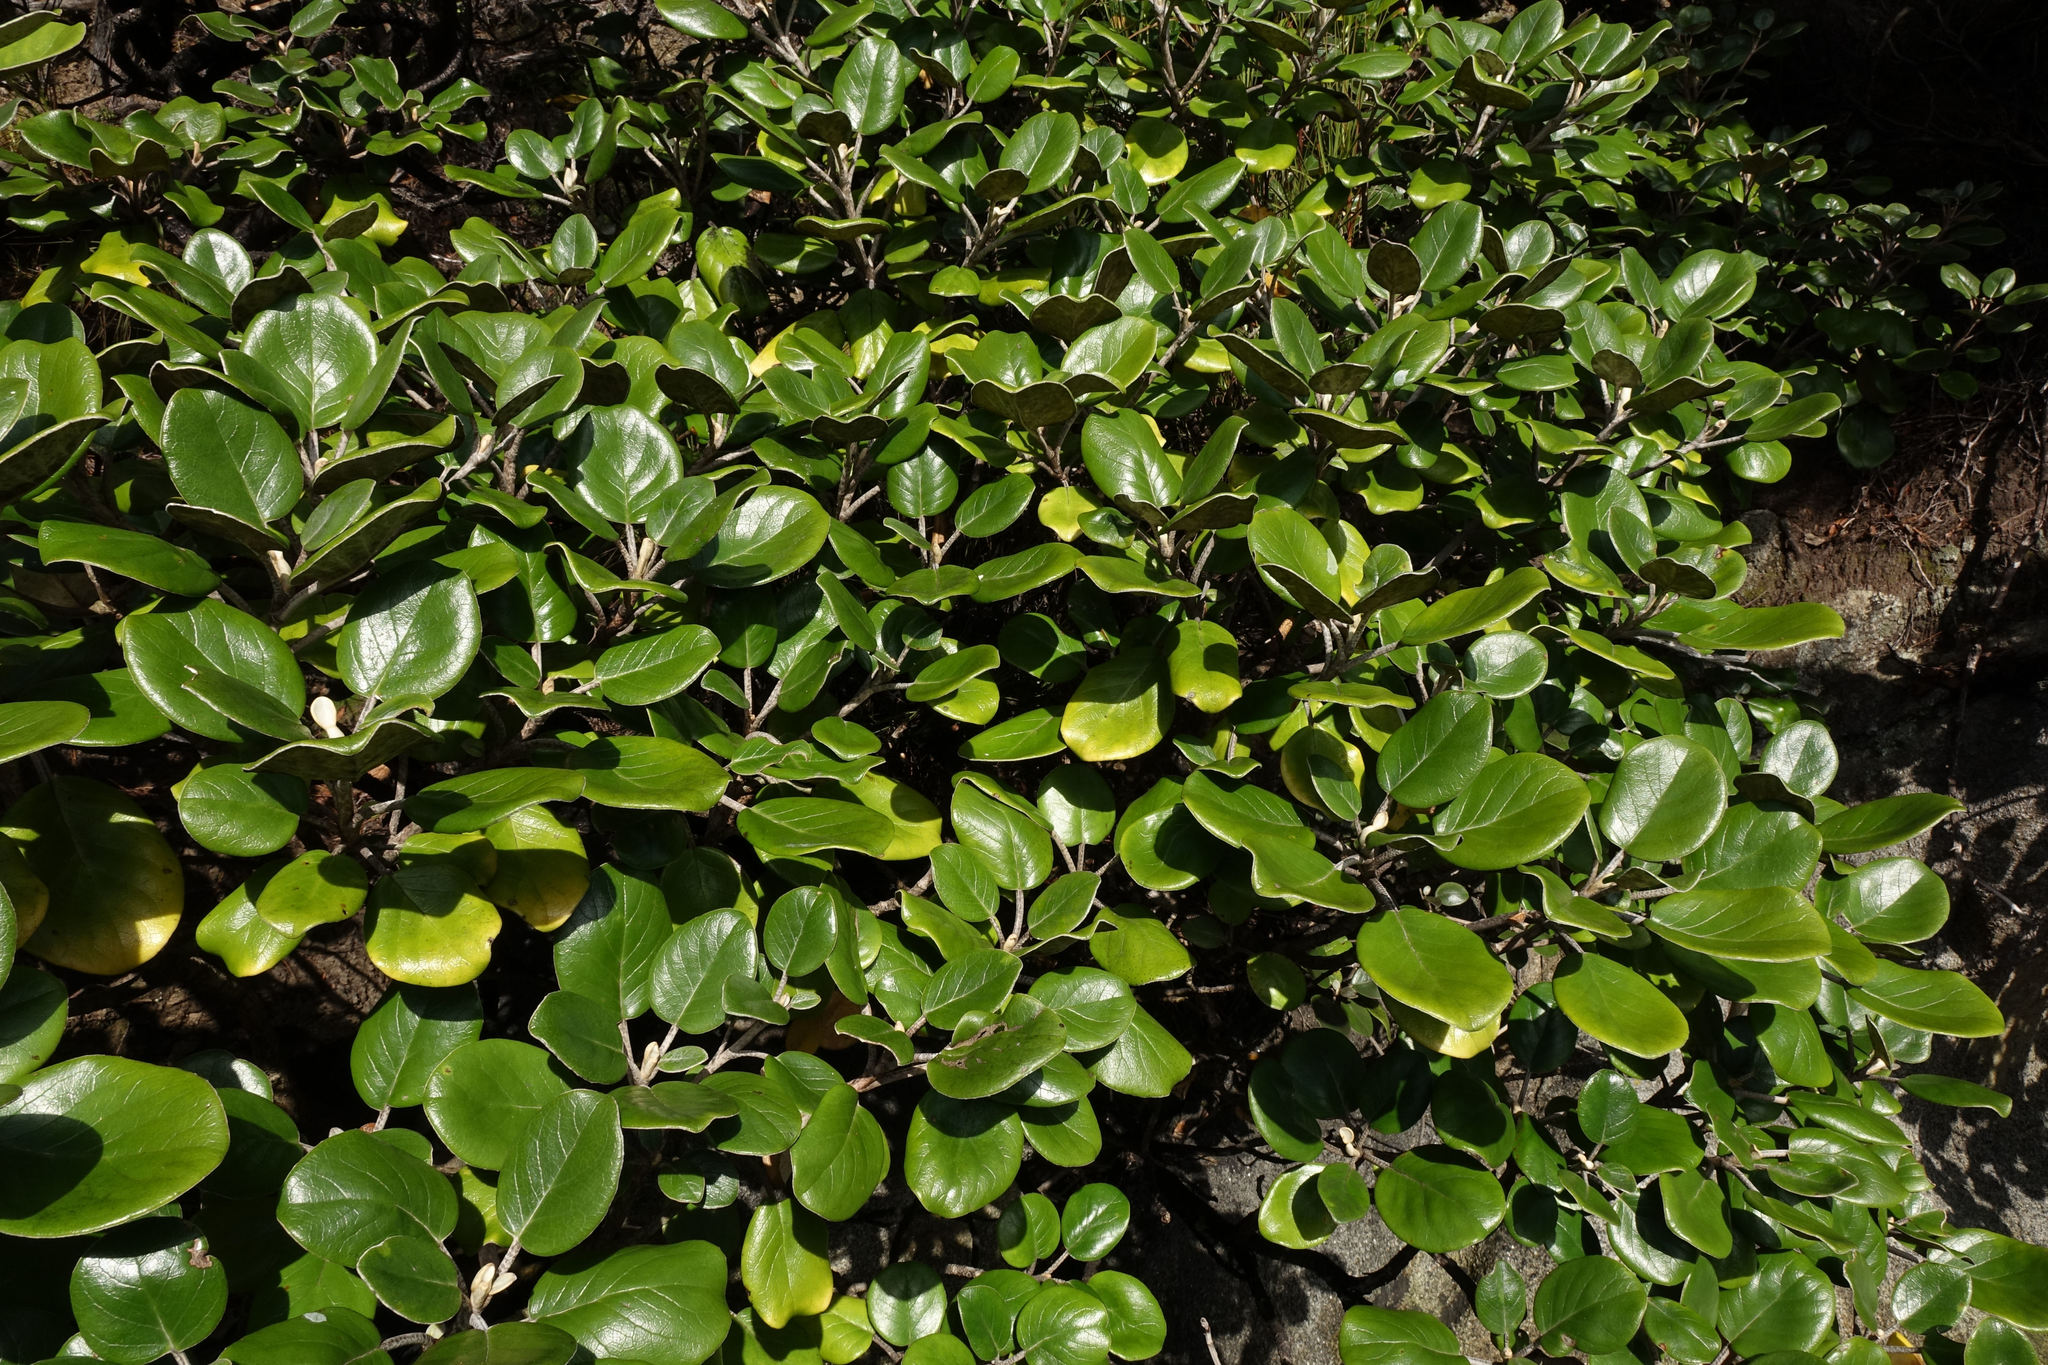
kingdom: Plantae
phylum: Tracheophyta
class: Magnoliopsida
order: Asterales
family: Asteraceae
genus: Brachyglottis
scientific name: Brachyglottis rotundifolia
